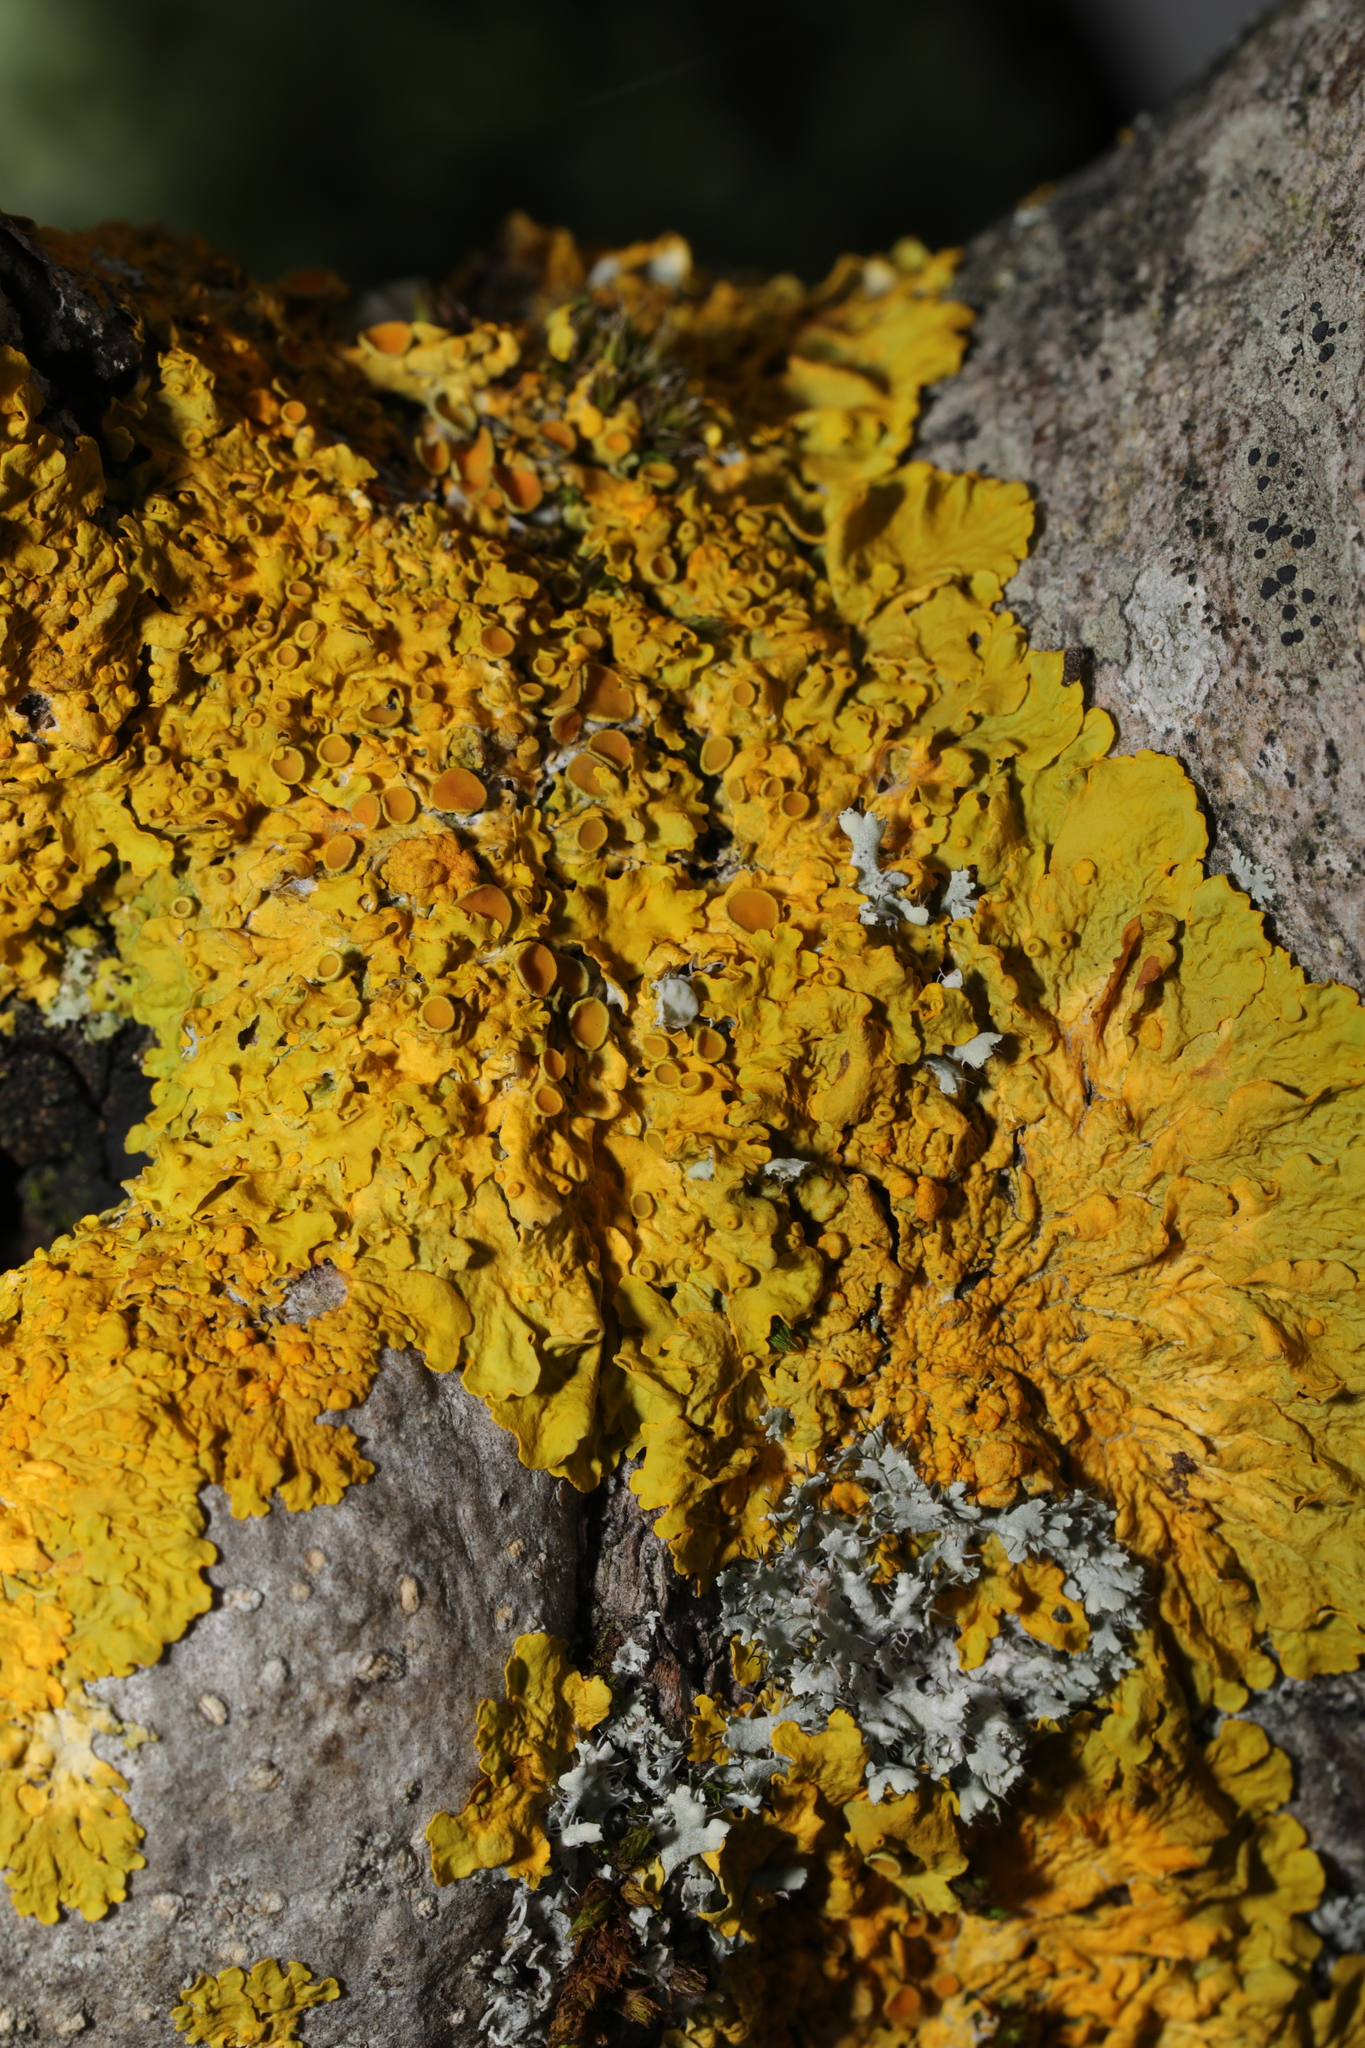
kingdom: Fungi
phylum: Ascomycota
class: Lecanoromycetes
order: Teloschistales
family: Teloschistaceae
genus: Xanthoria
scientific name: Xanthoria parietina
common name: Common orange lichen
